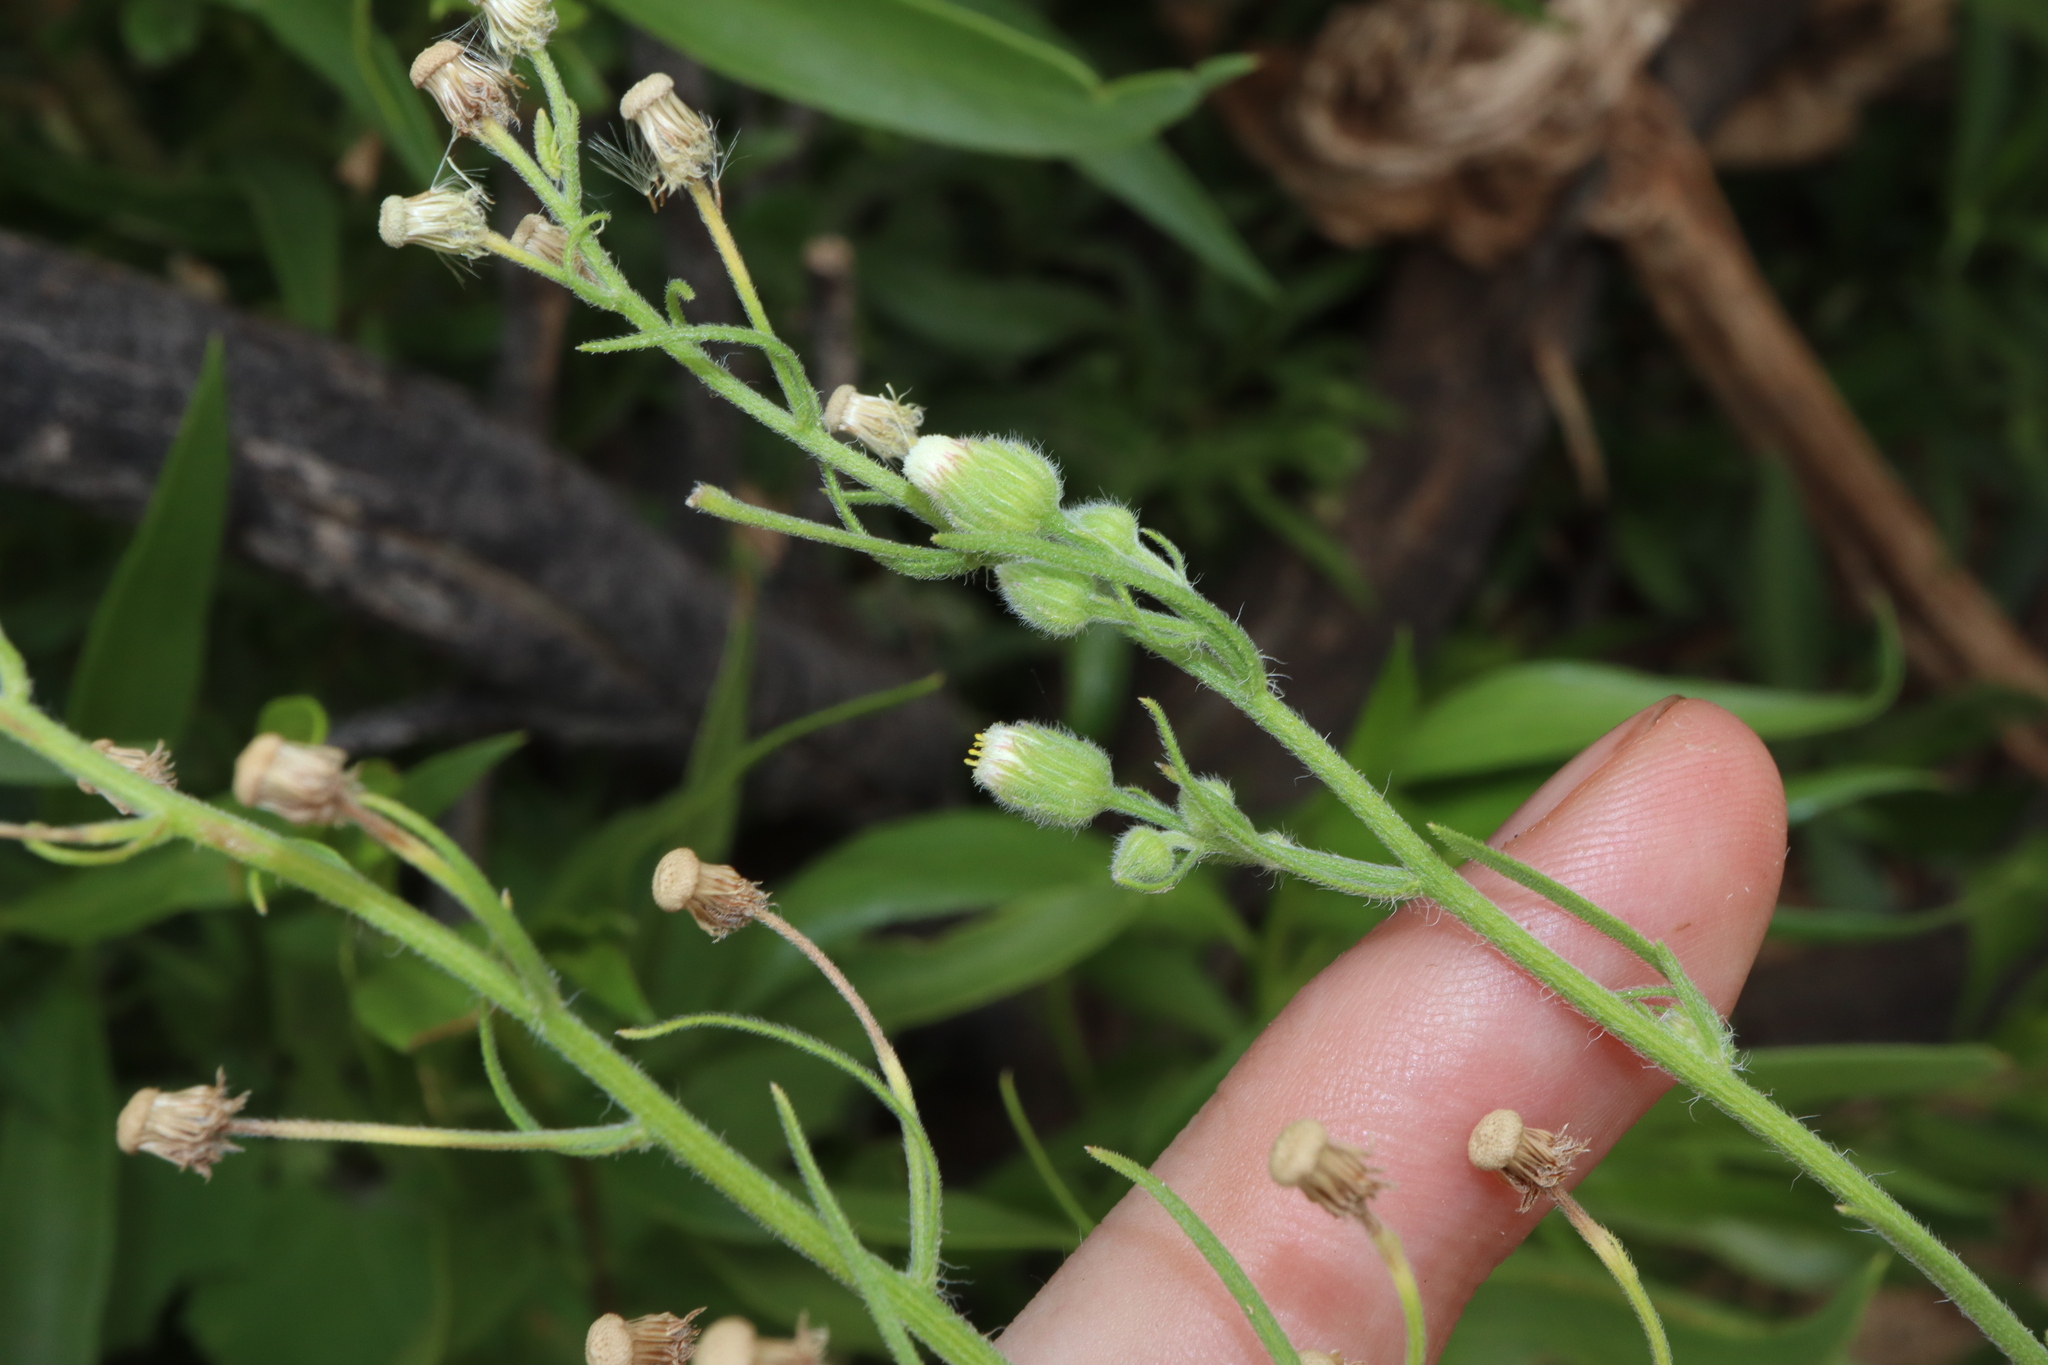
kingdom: Plantae
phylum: Tracheophyta
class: Magnoliopsida
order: Asterales
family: Asteraceae
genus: Erigeron
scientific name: Erigeron bonariensis
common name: Argentine fleabane
